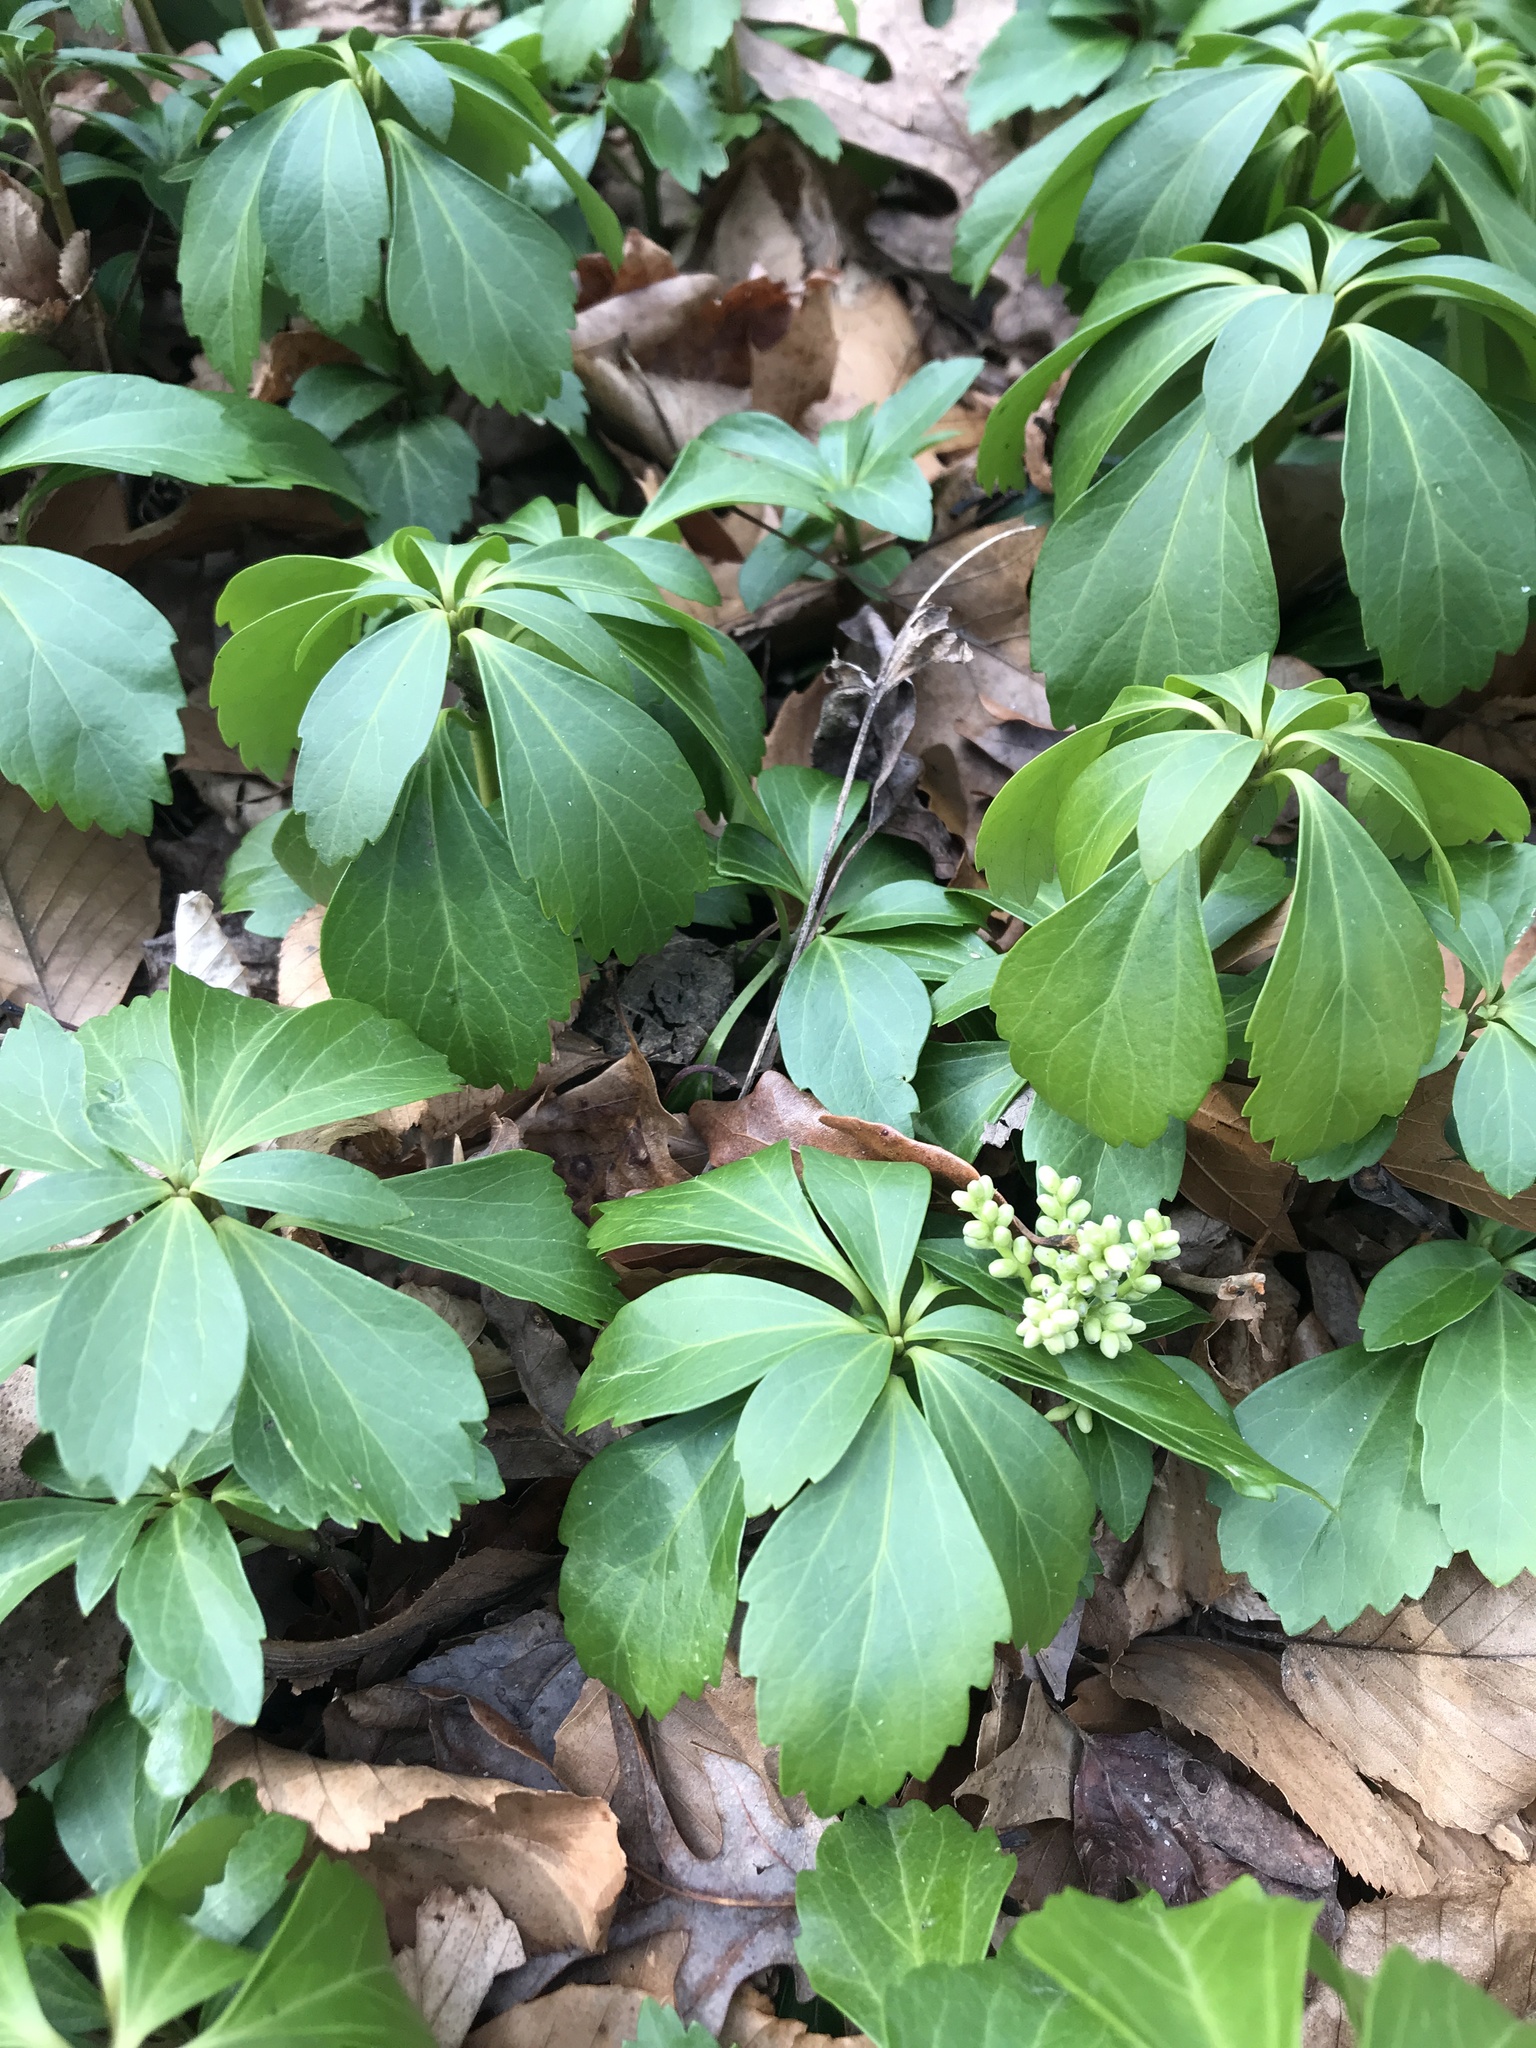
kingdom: Plantae
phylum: Tracheophyta
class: Magnoliopsida
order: Buxales
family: Buxaceae
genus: Pachysandra
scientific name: Pachysandra terminalis
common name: Japanese pachysandra
